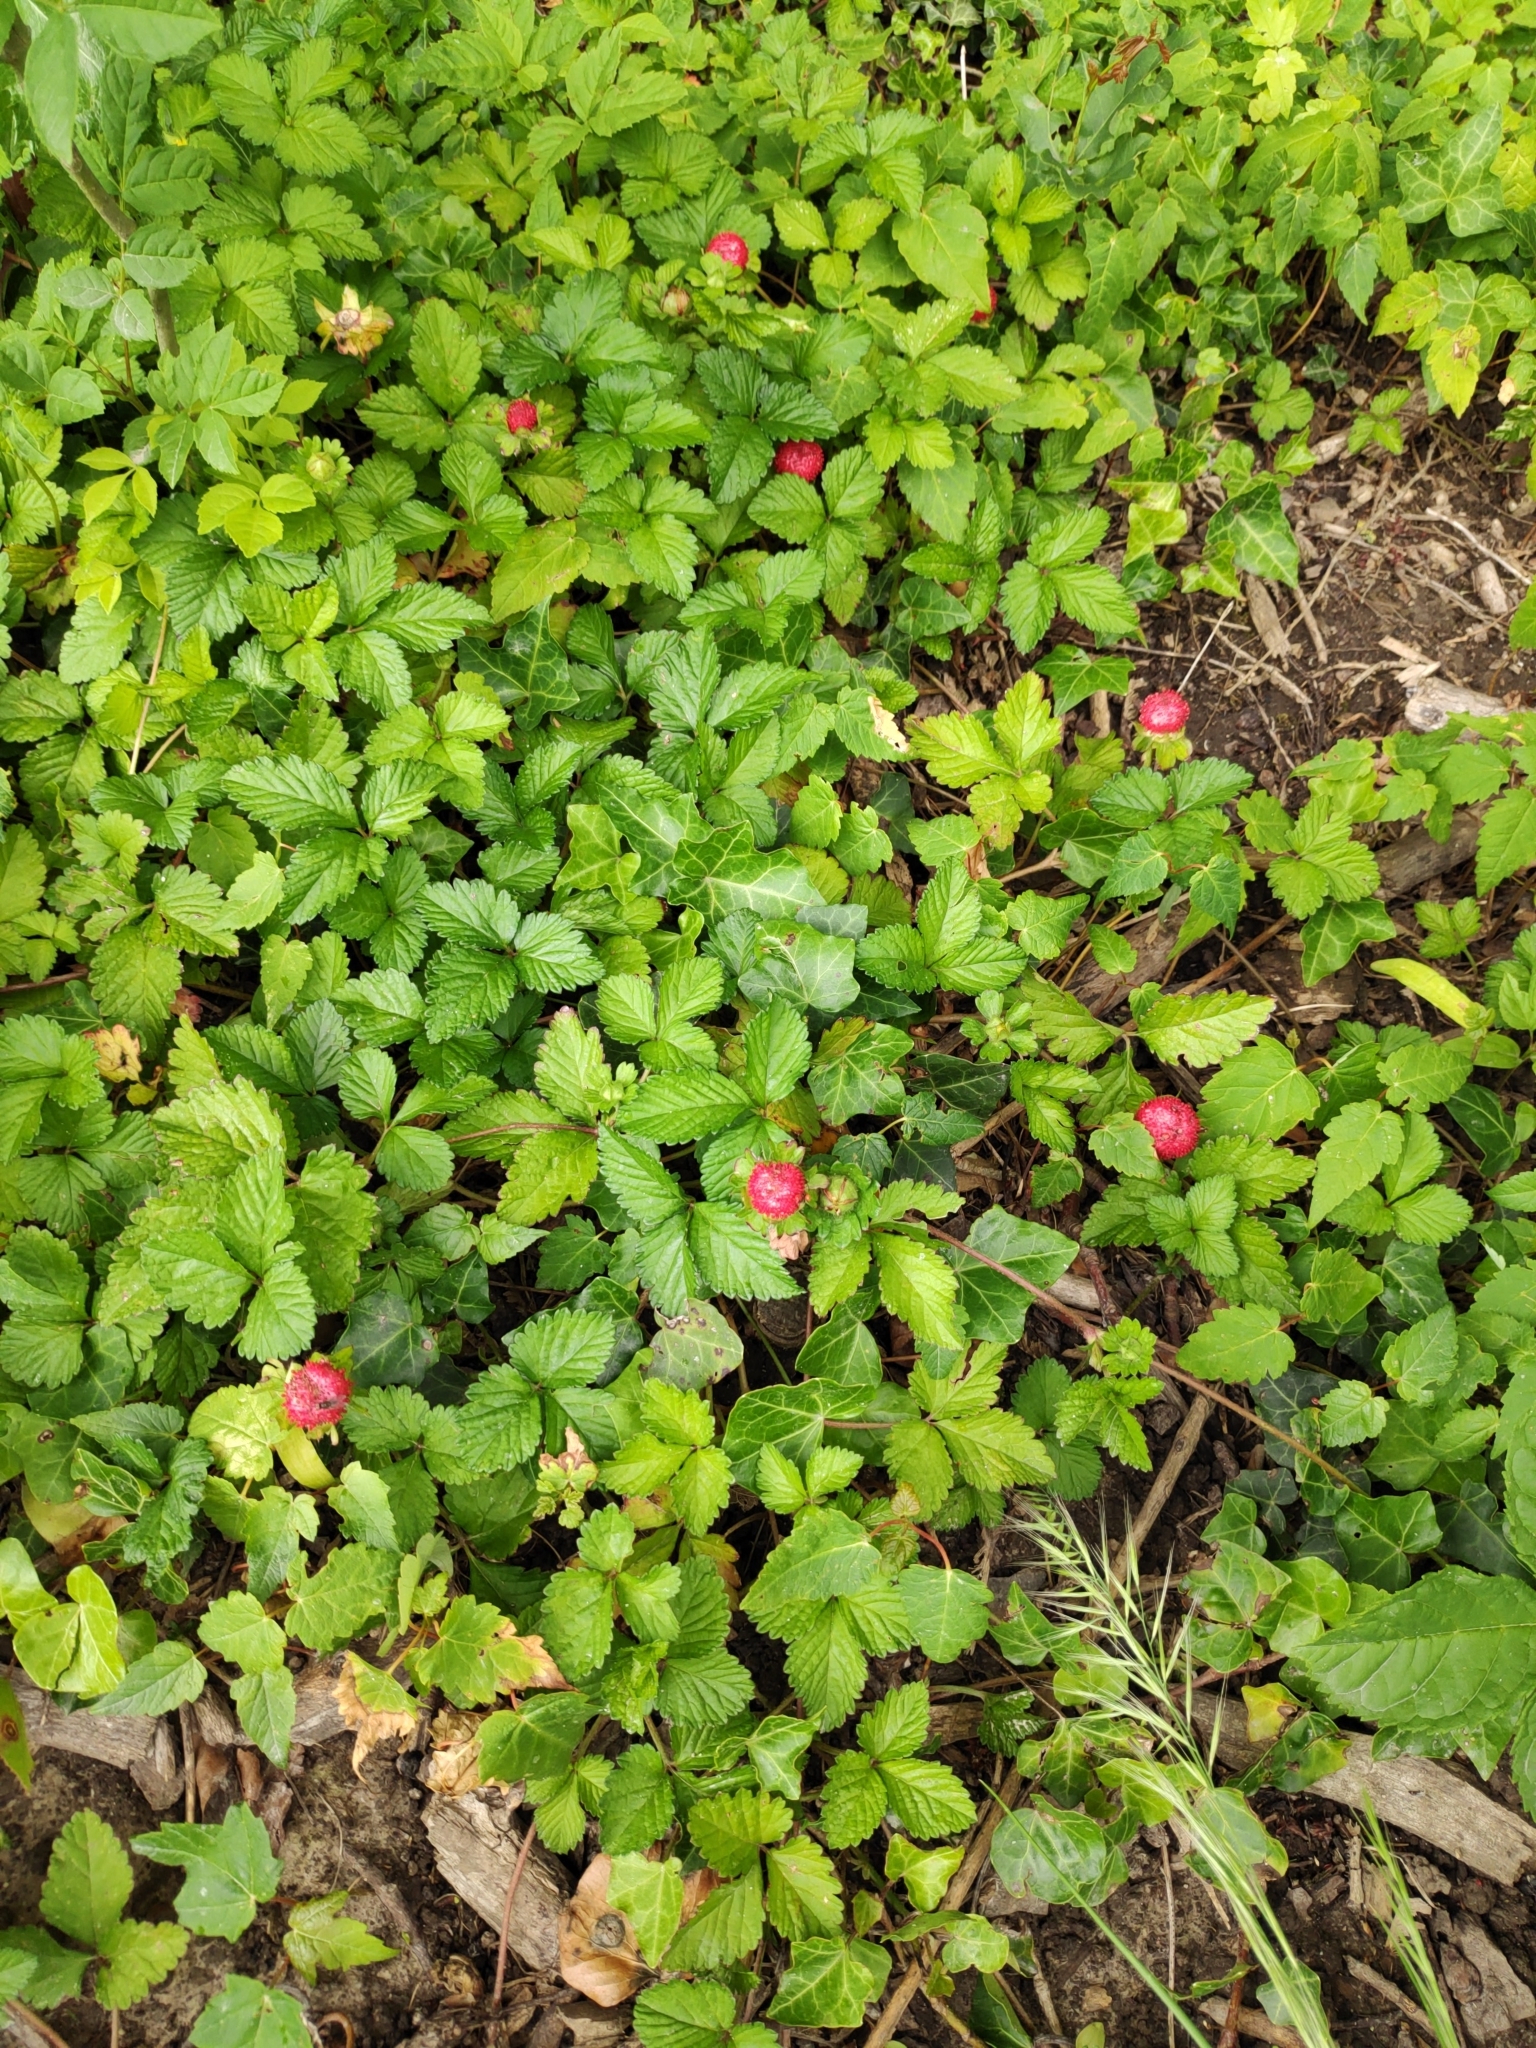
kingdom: Plantae
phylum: Tracheophyta
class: Magnoliopsida
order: Rosales
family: Rosaceae
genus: Potentilla
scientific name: Potentilla indica
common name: Yellow-flowered strawberry
